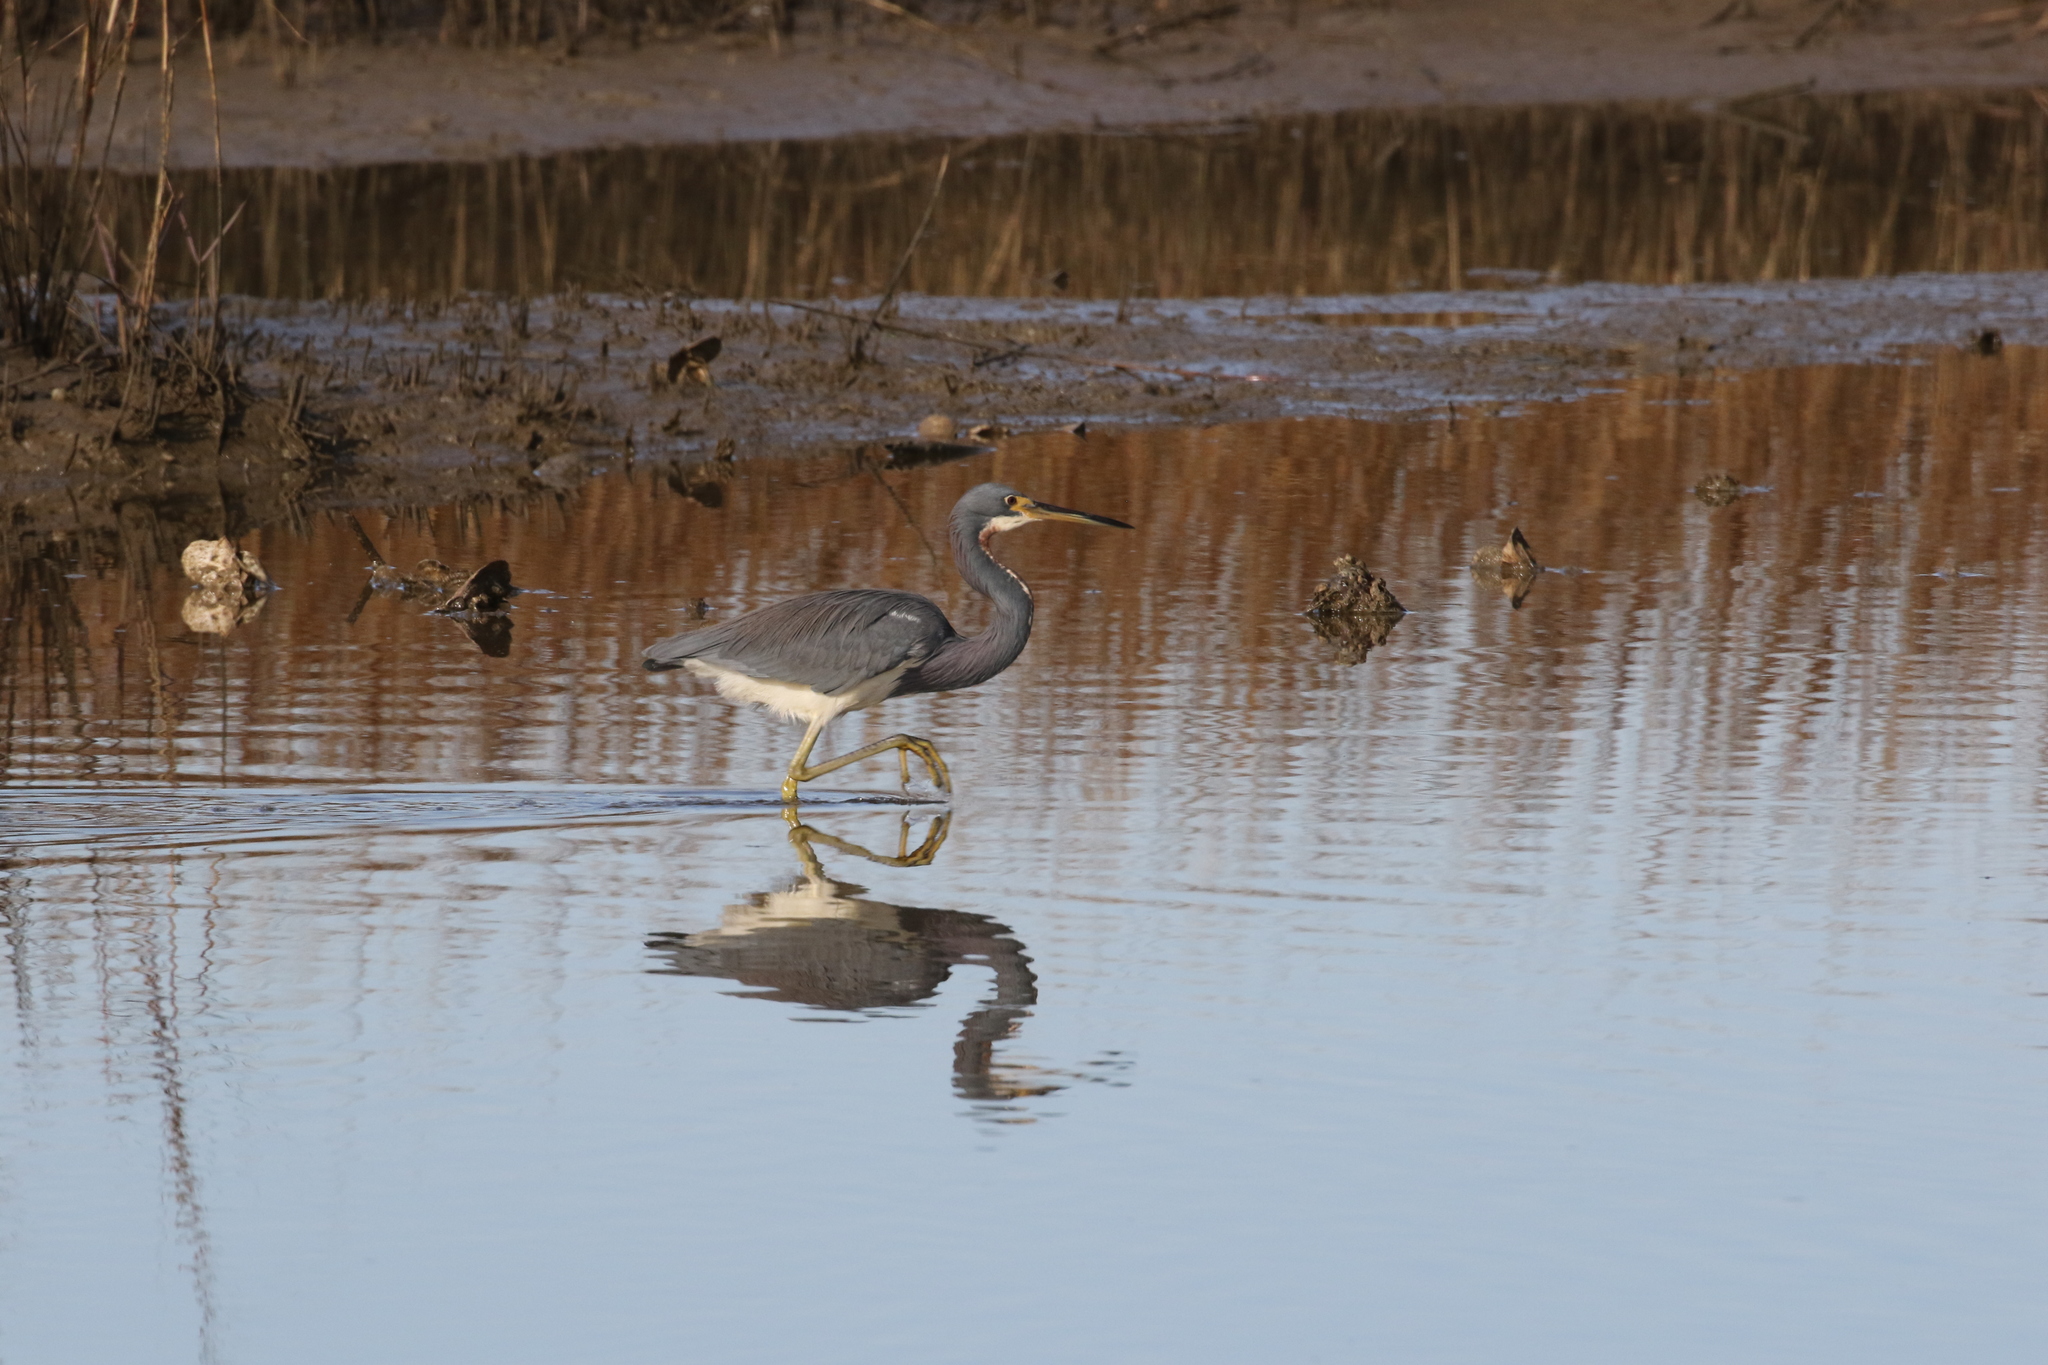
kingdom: Animalia
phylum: Chordata
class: Aves
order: Pelecaniformes
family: Ardeidae
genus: Egretta
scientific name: Egretta tricolor
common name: Tricolored heron
